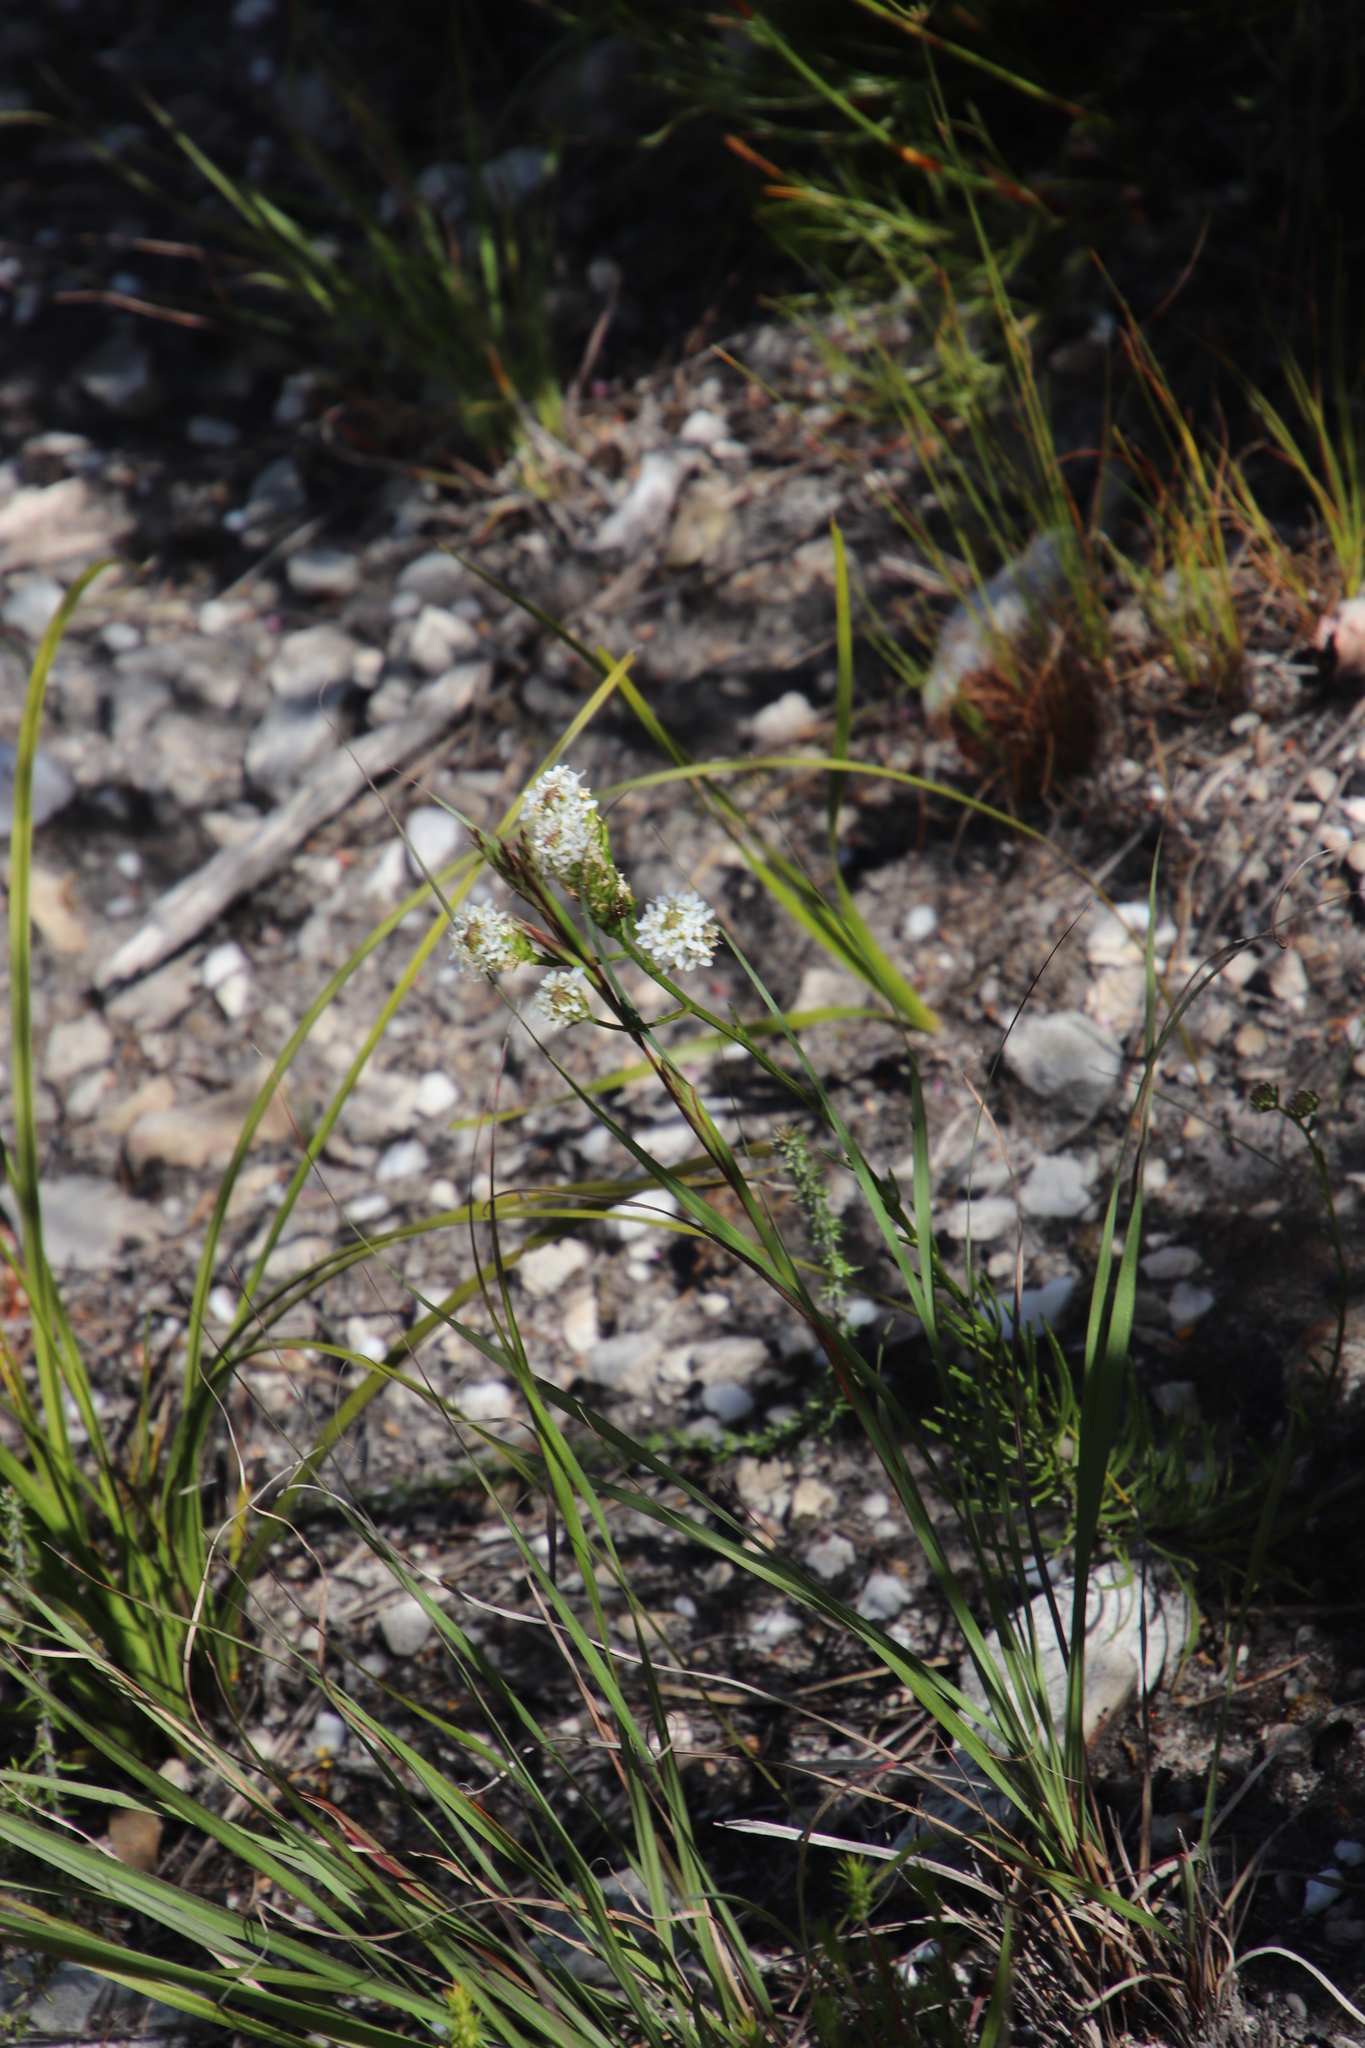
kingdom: Plantae
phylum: Tracheophyta
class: Magnoliopsida
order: Lamiales
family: Scrophulariaceae
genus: Pseudoselago
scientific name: Pseudoselago gracilis
